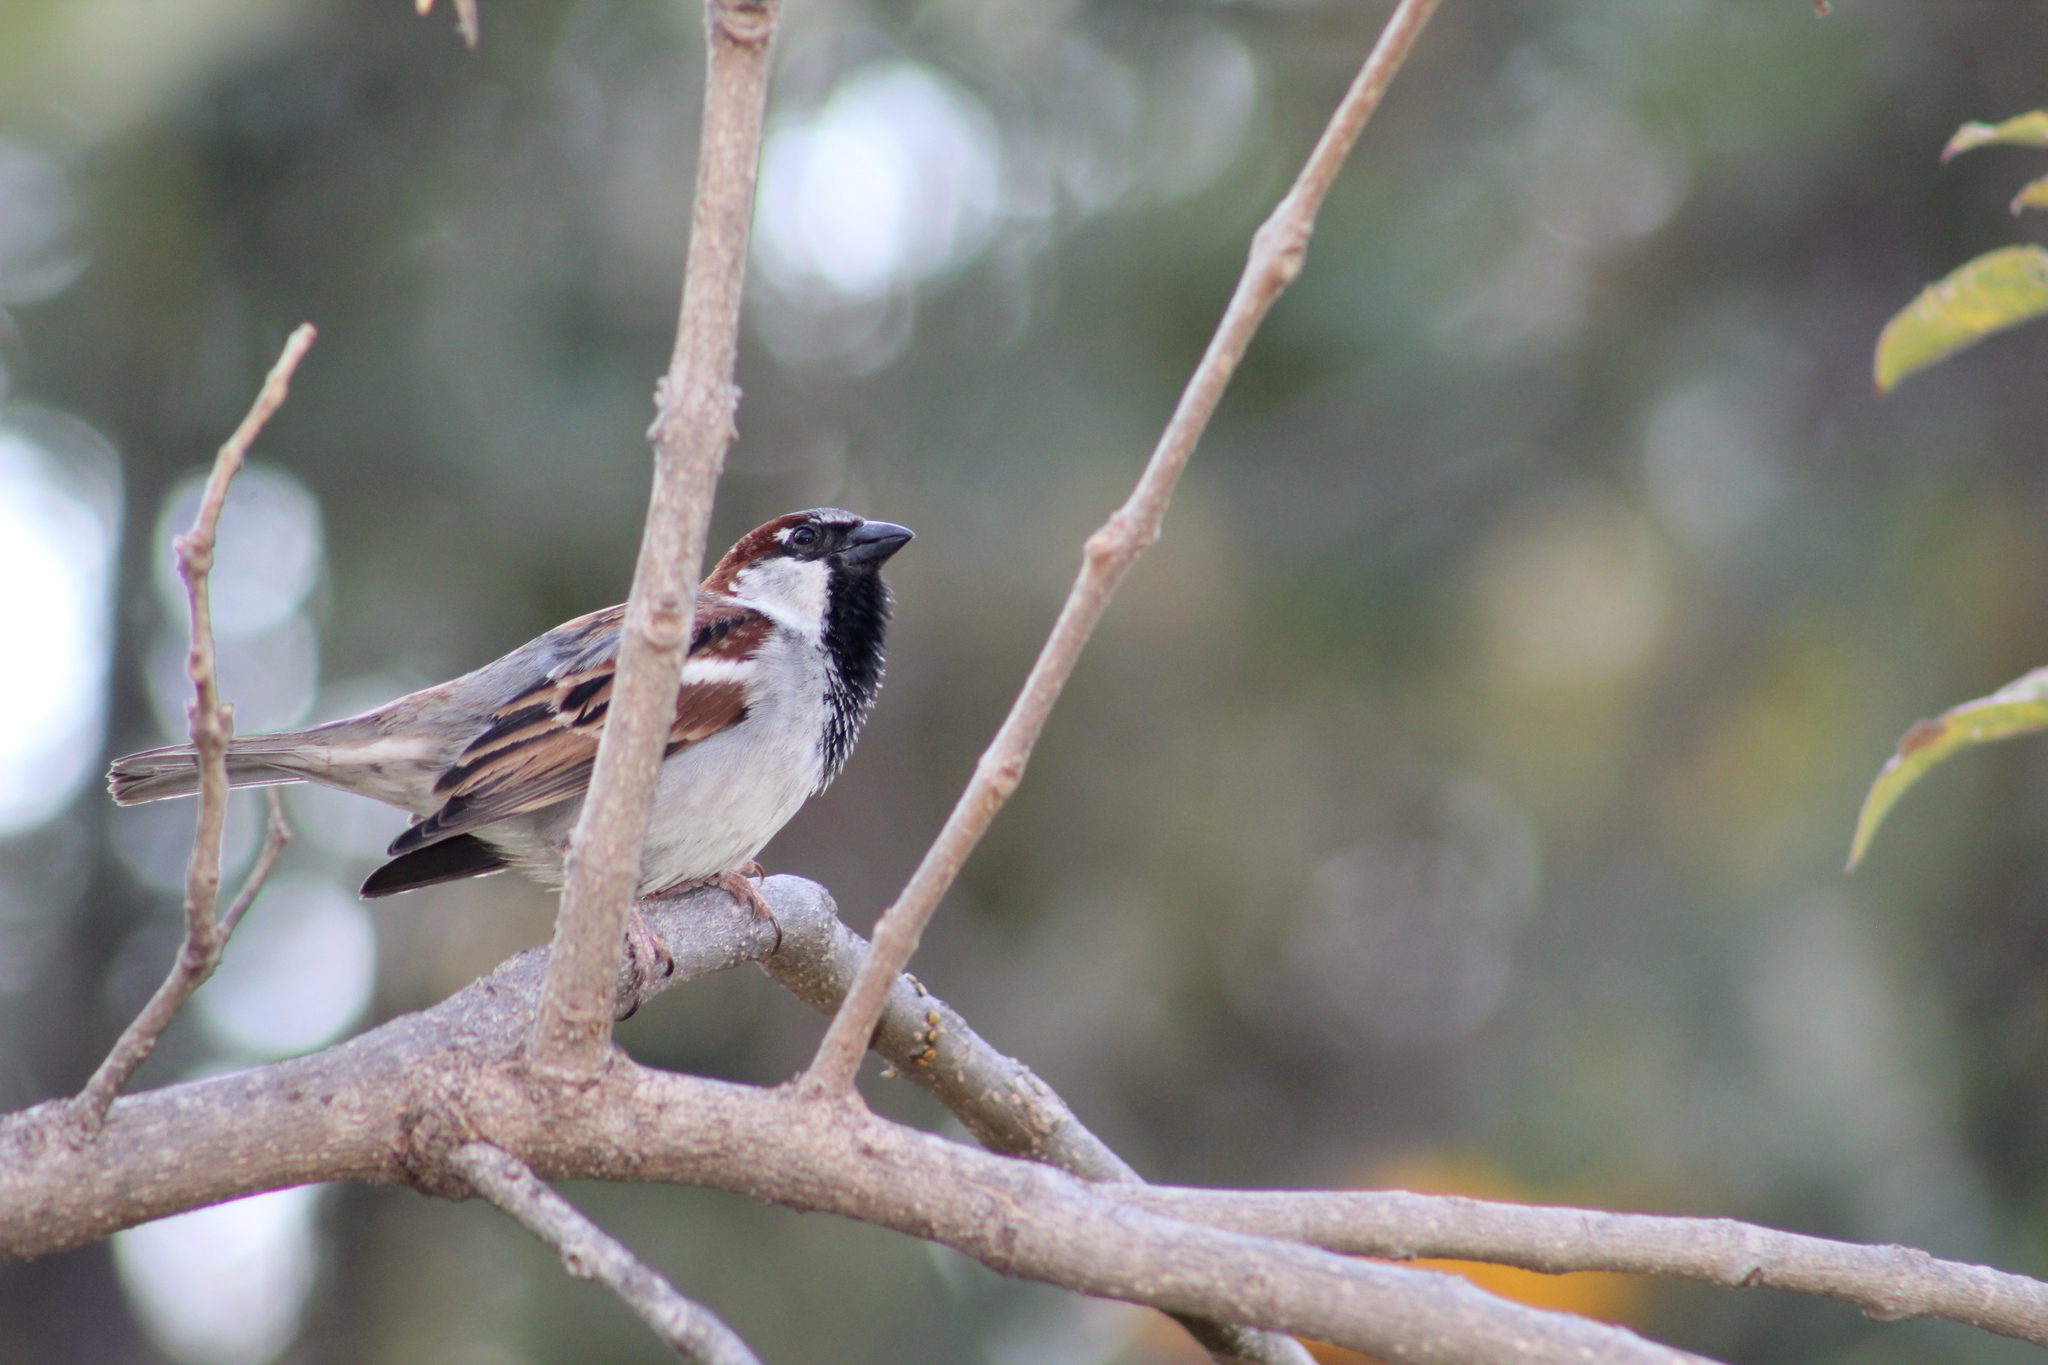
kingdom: Animalia
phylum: Chordata
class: Aves
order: Passeriformes
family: Passeridae
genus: Passer
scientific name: Passer domesticus
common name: House sparrow
